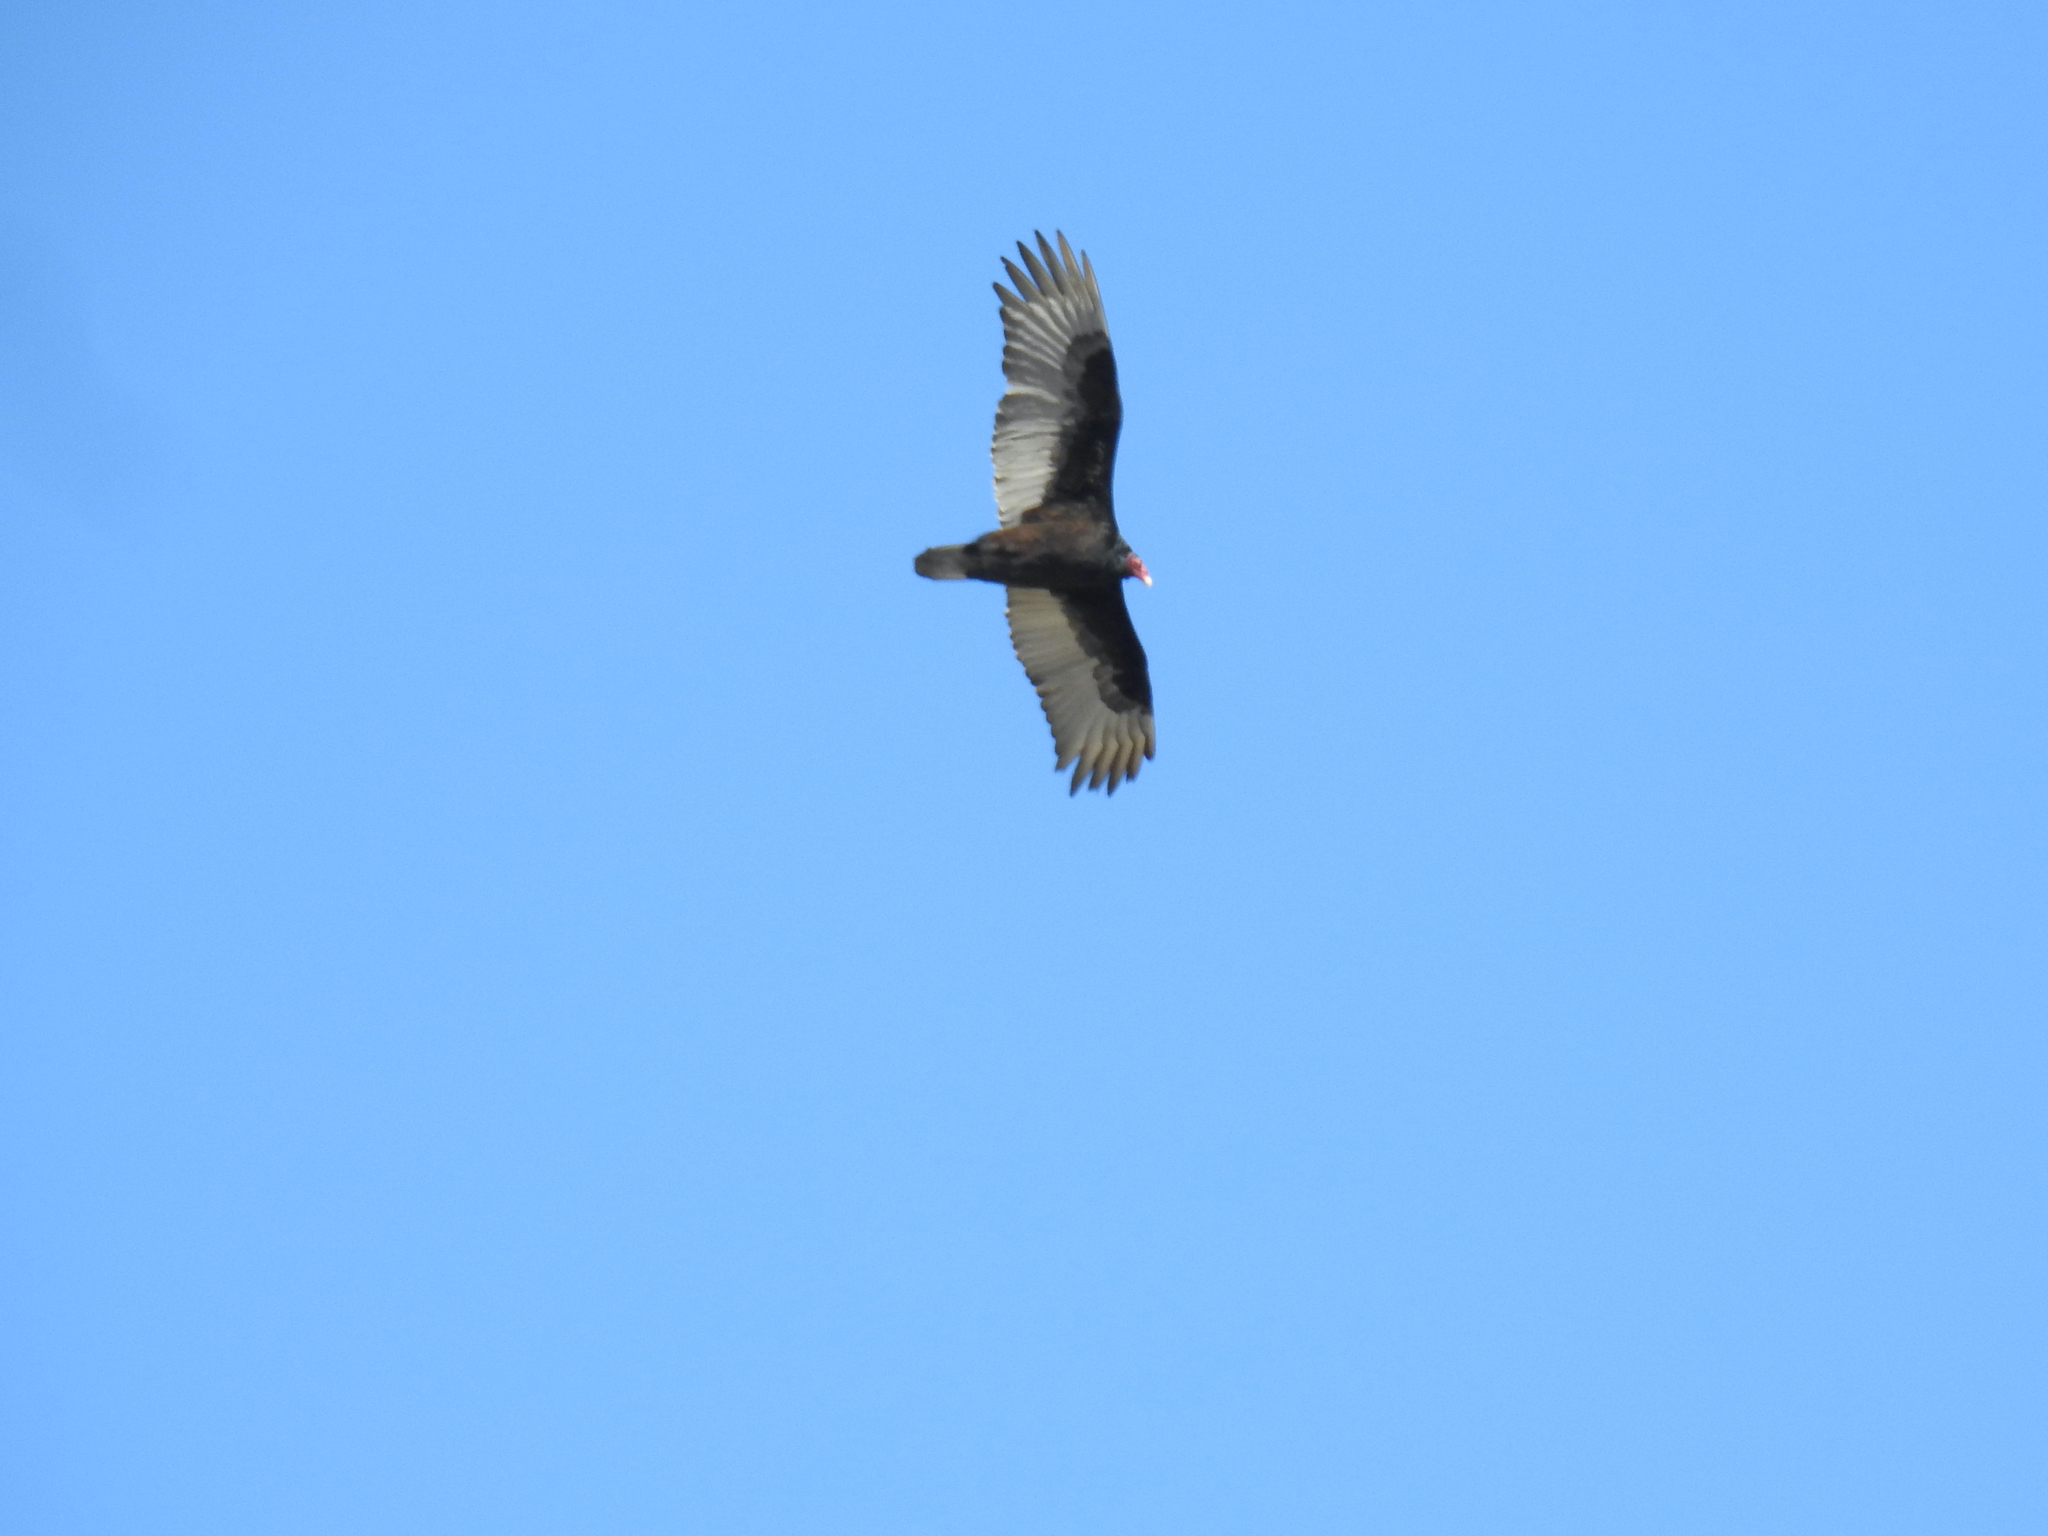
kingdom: Animalia
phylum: Chordata
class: Aves
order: Accipitriformes
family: Cathartidae
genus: Cathartes
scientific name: Cathartes aura
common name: Turkey vulture
